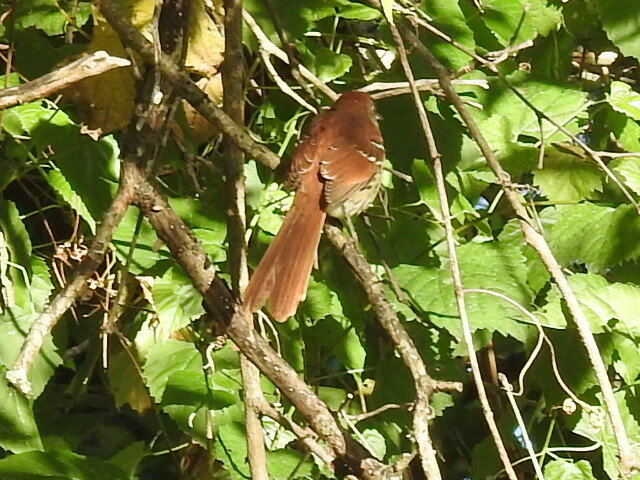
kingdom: Animalia
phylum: Chordata
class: Aves
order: Passeriformes
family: Mimidae
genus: Toxostoma
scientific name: Toxostoma rufum
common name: Brown thrasher
